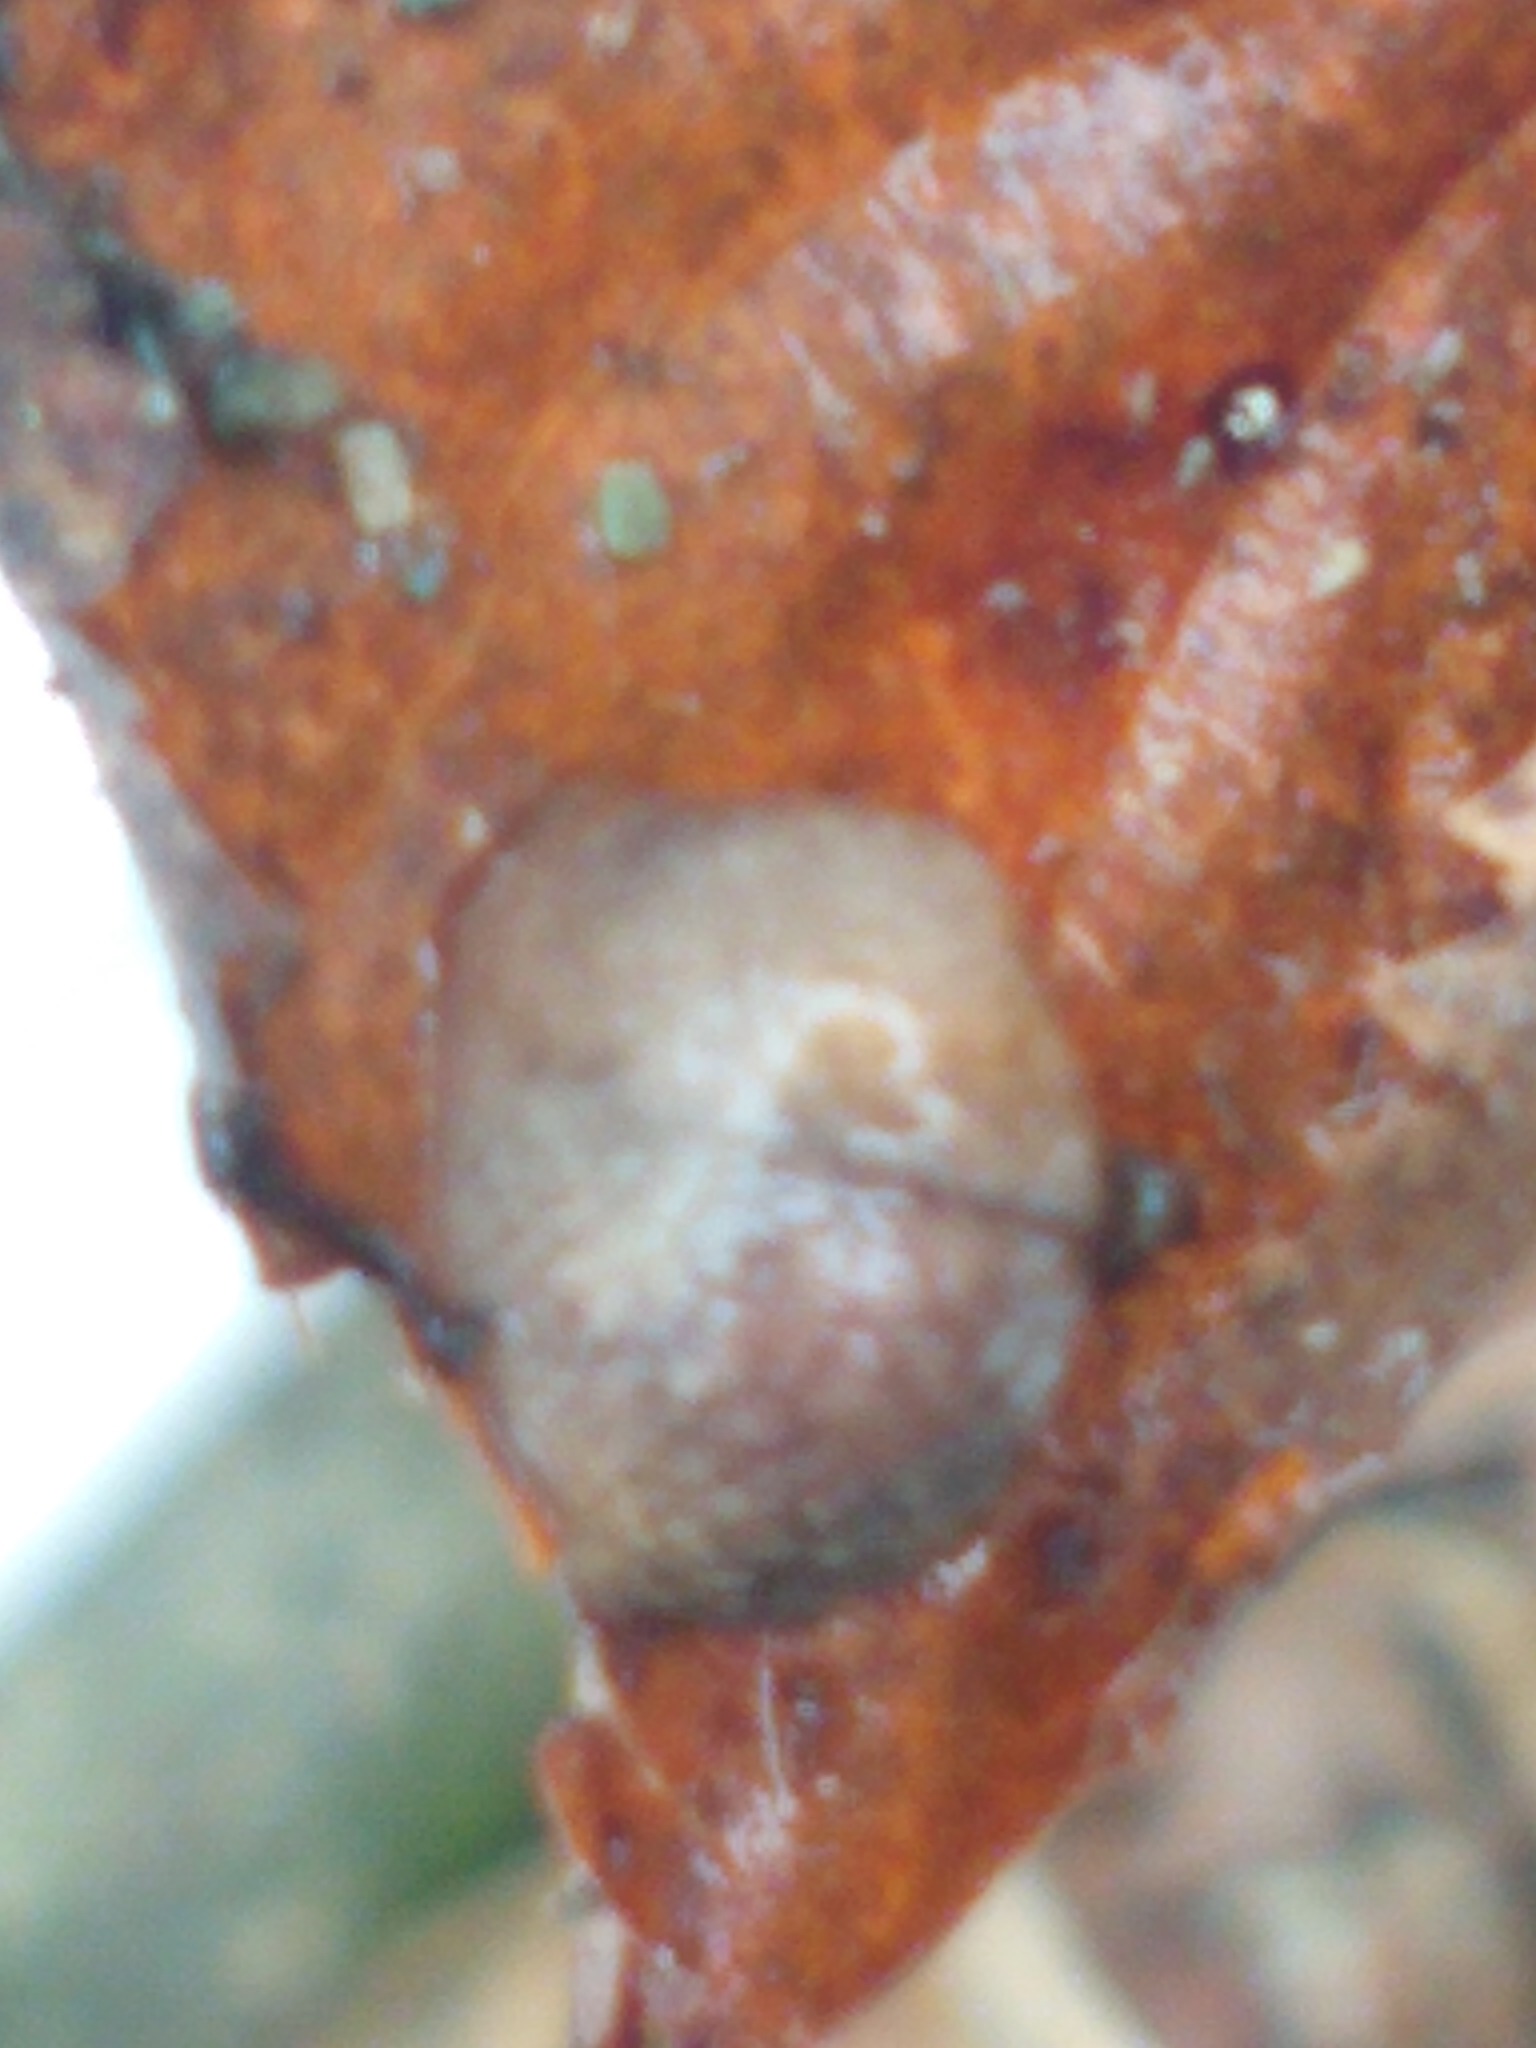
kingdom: Animalia
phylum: Mollusca
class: Gastropoda
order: Stylommatophora
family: Agriolimacidae
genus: Deroceras
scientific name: Deroceras reticulatum
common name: Gray field slug
